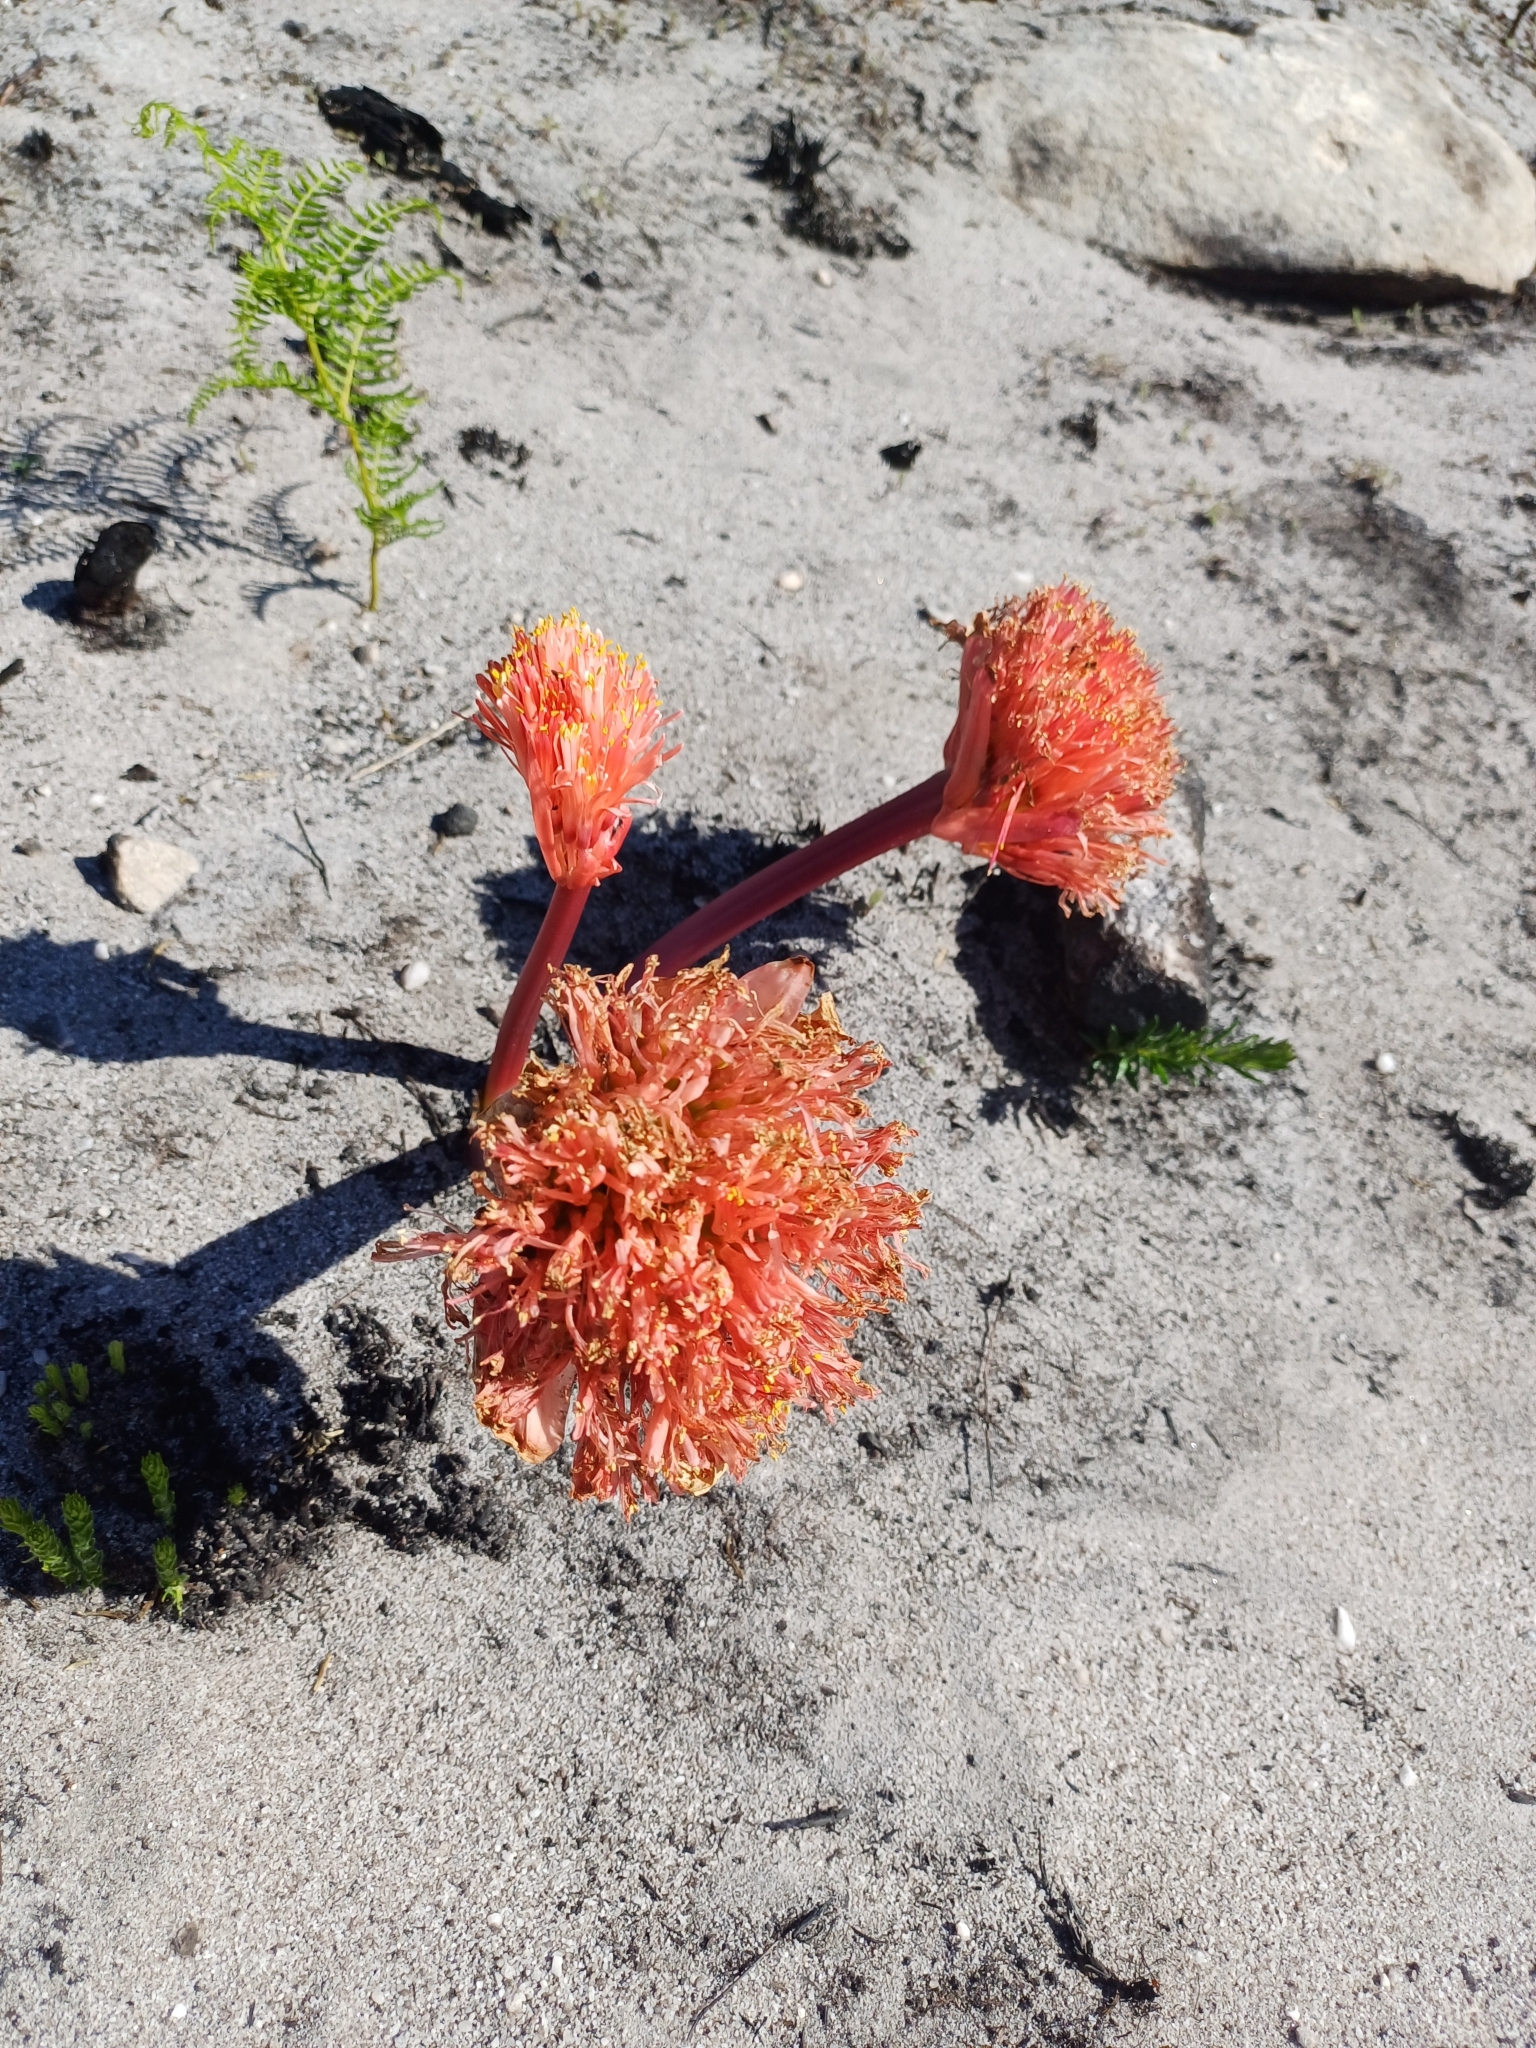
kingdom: Plantae
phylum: Tracheophyta
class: Liliopsida
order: Asparagales
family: Amaryllidaceae
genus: Haemanthus
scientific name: Haemanthus sanguineus
